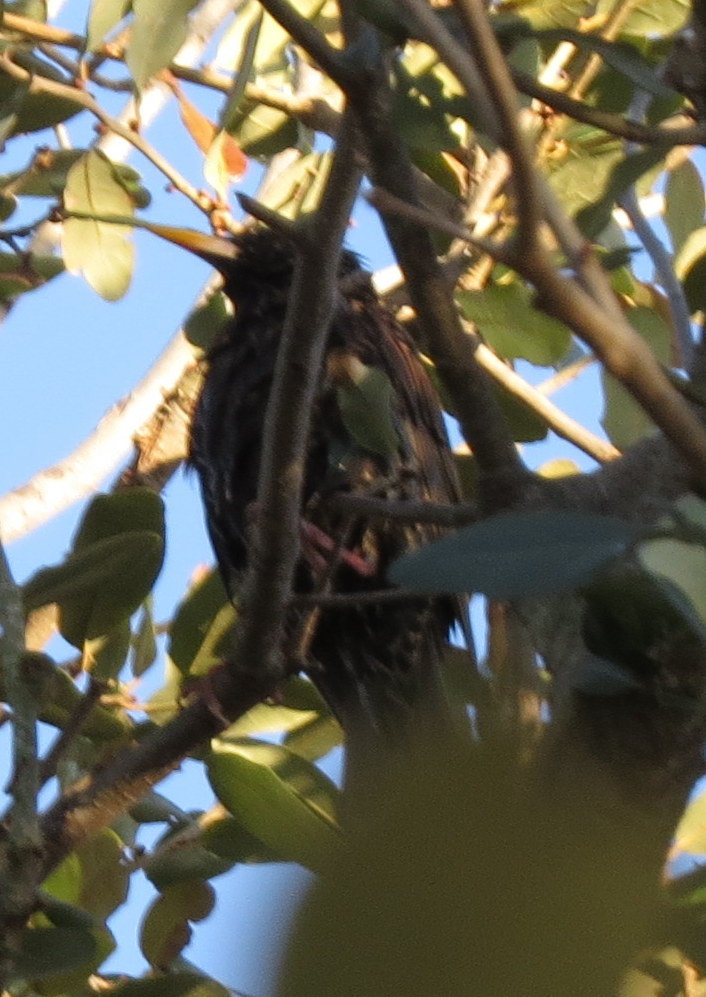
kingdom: Animalia
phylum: Chordata
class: Aves
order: Passeriformes
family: Sturnidae
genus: Sturnus
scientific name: Sturnus vulgaris
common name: Common starling
